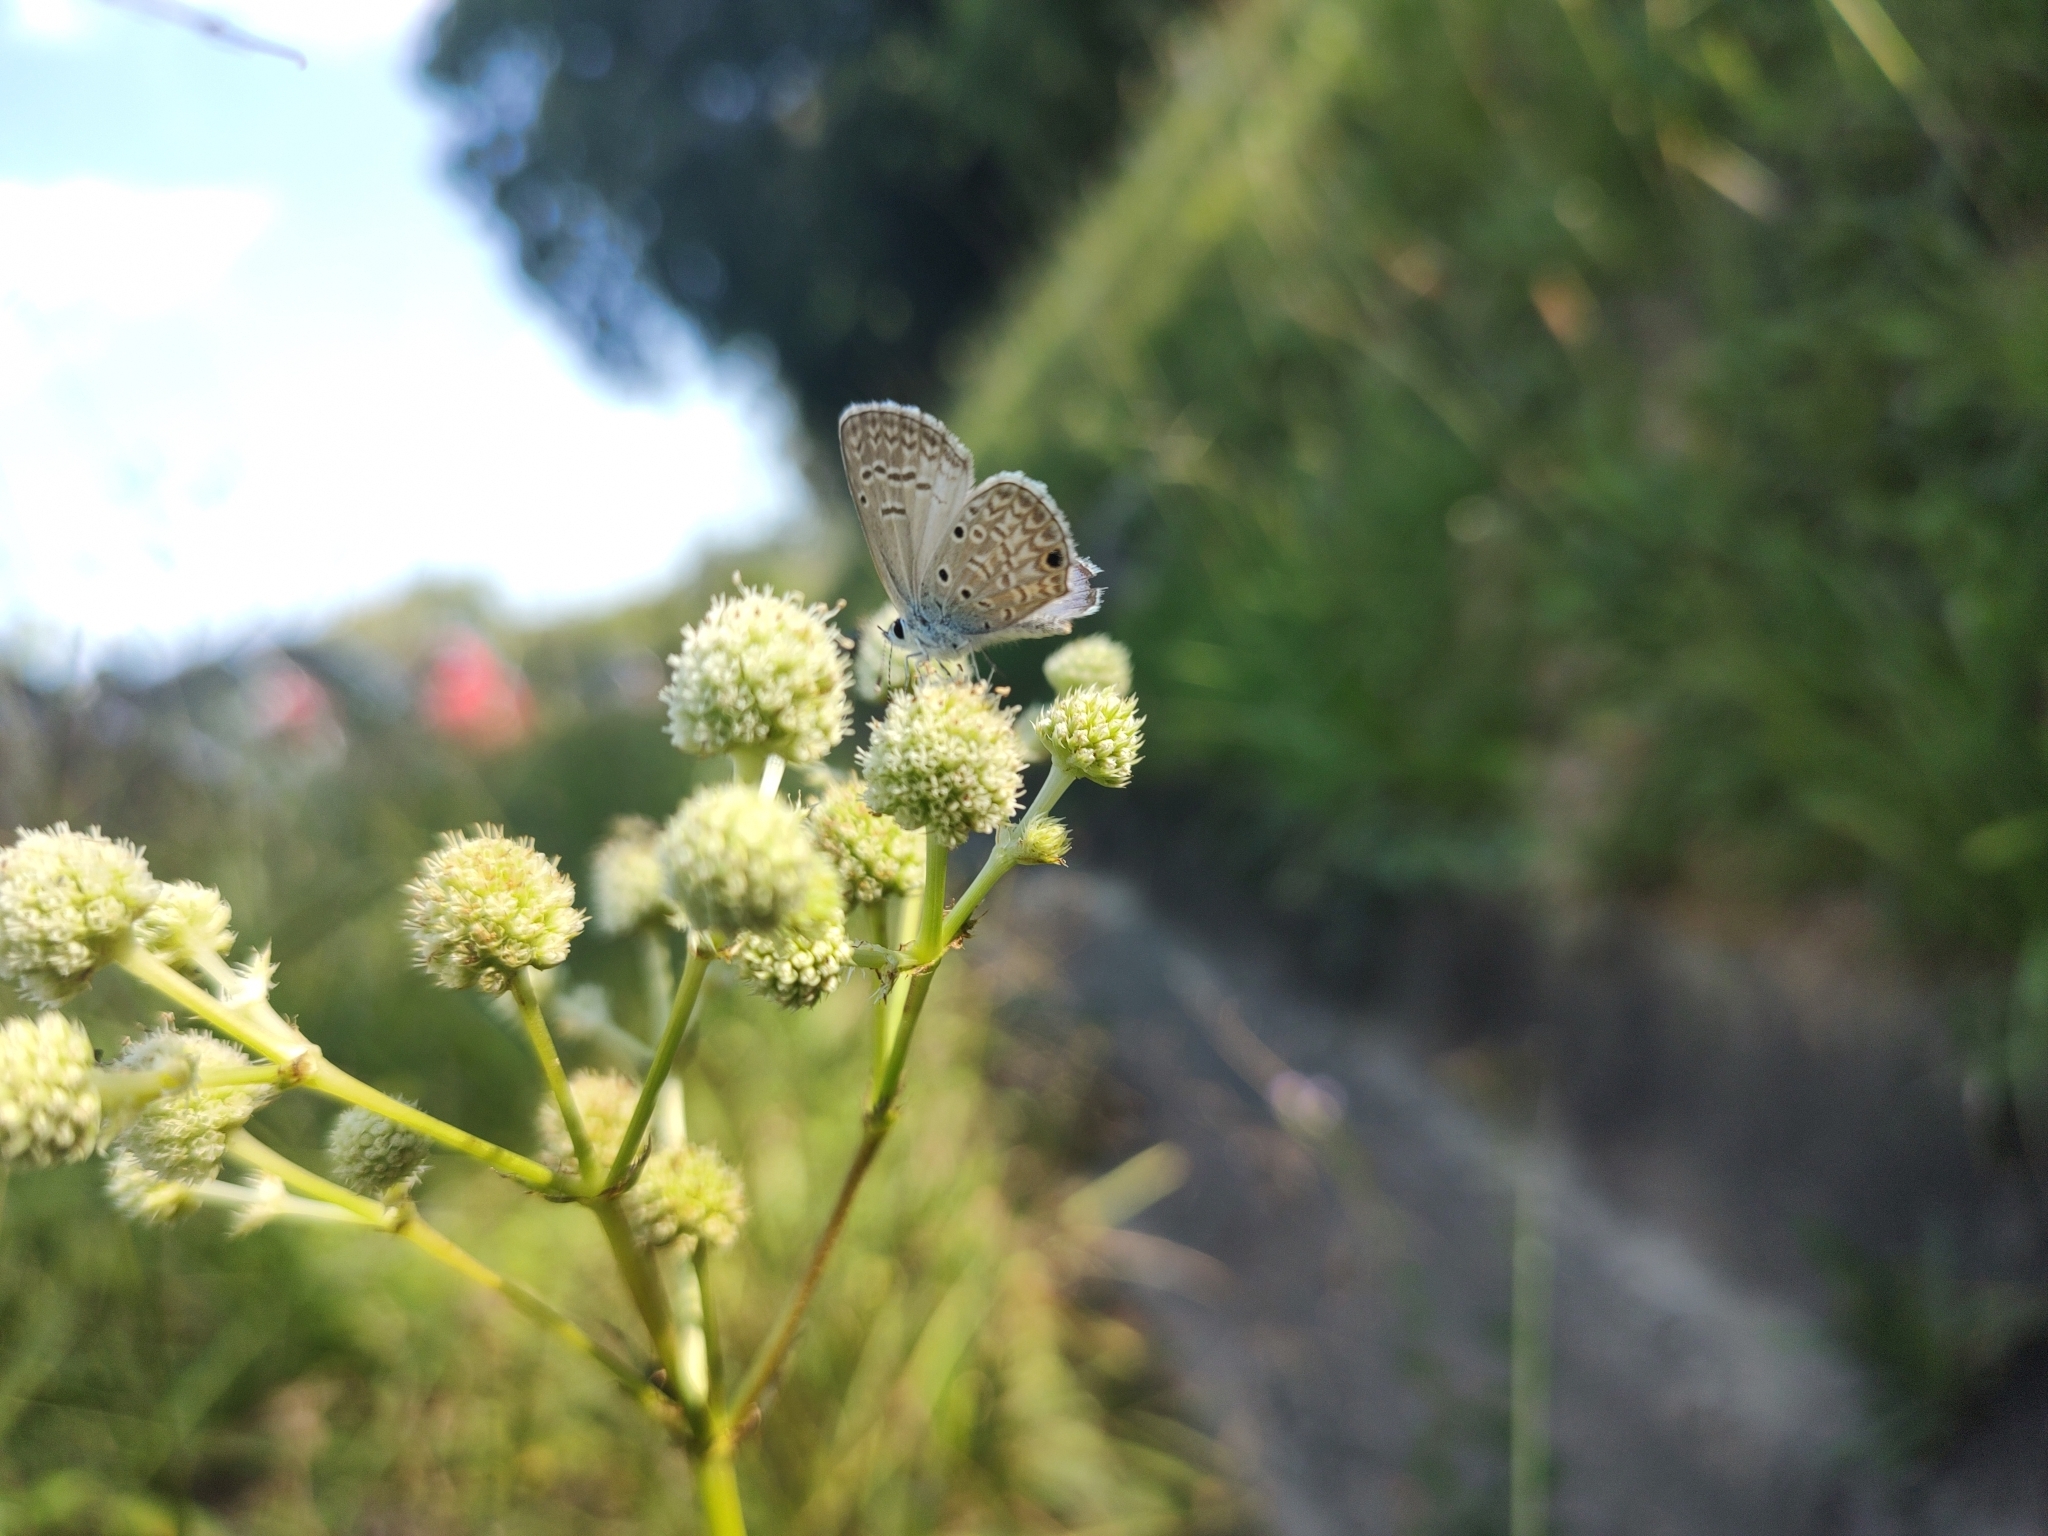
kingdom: Animalia
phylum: Arthropoda
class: Insecta
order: Lepidoptera
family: Lycaenidae
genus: Hemiargus
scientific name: Hemiargus hanno
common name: Common blue
